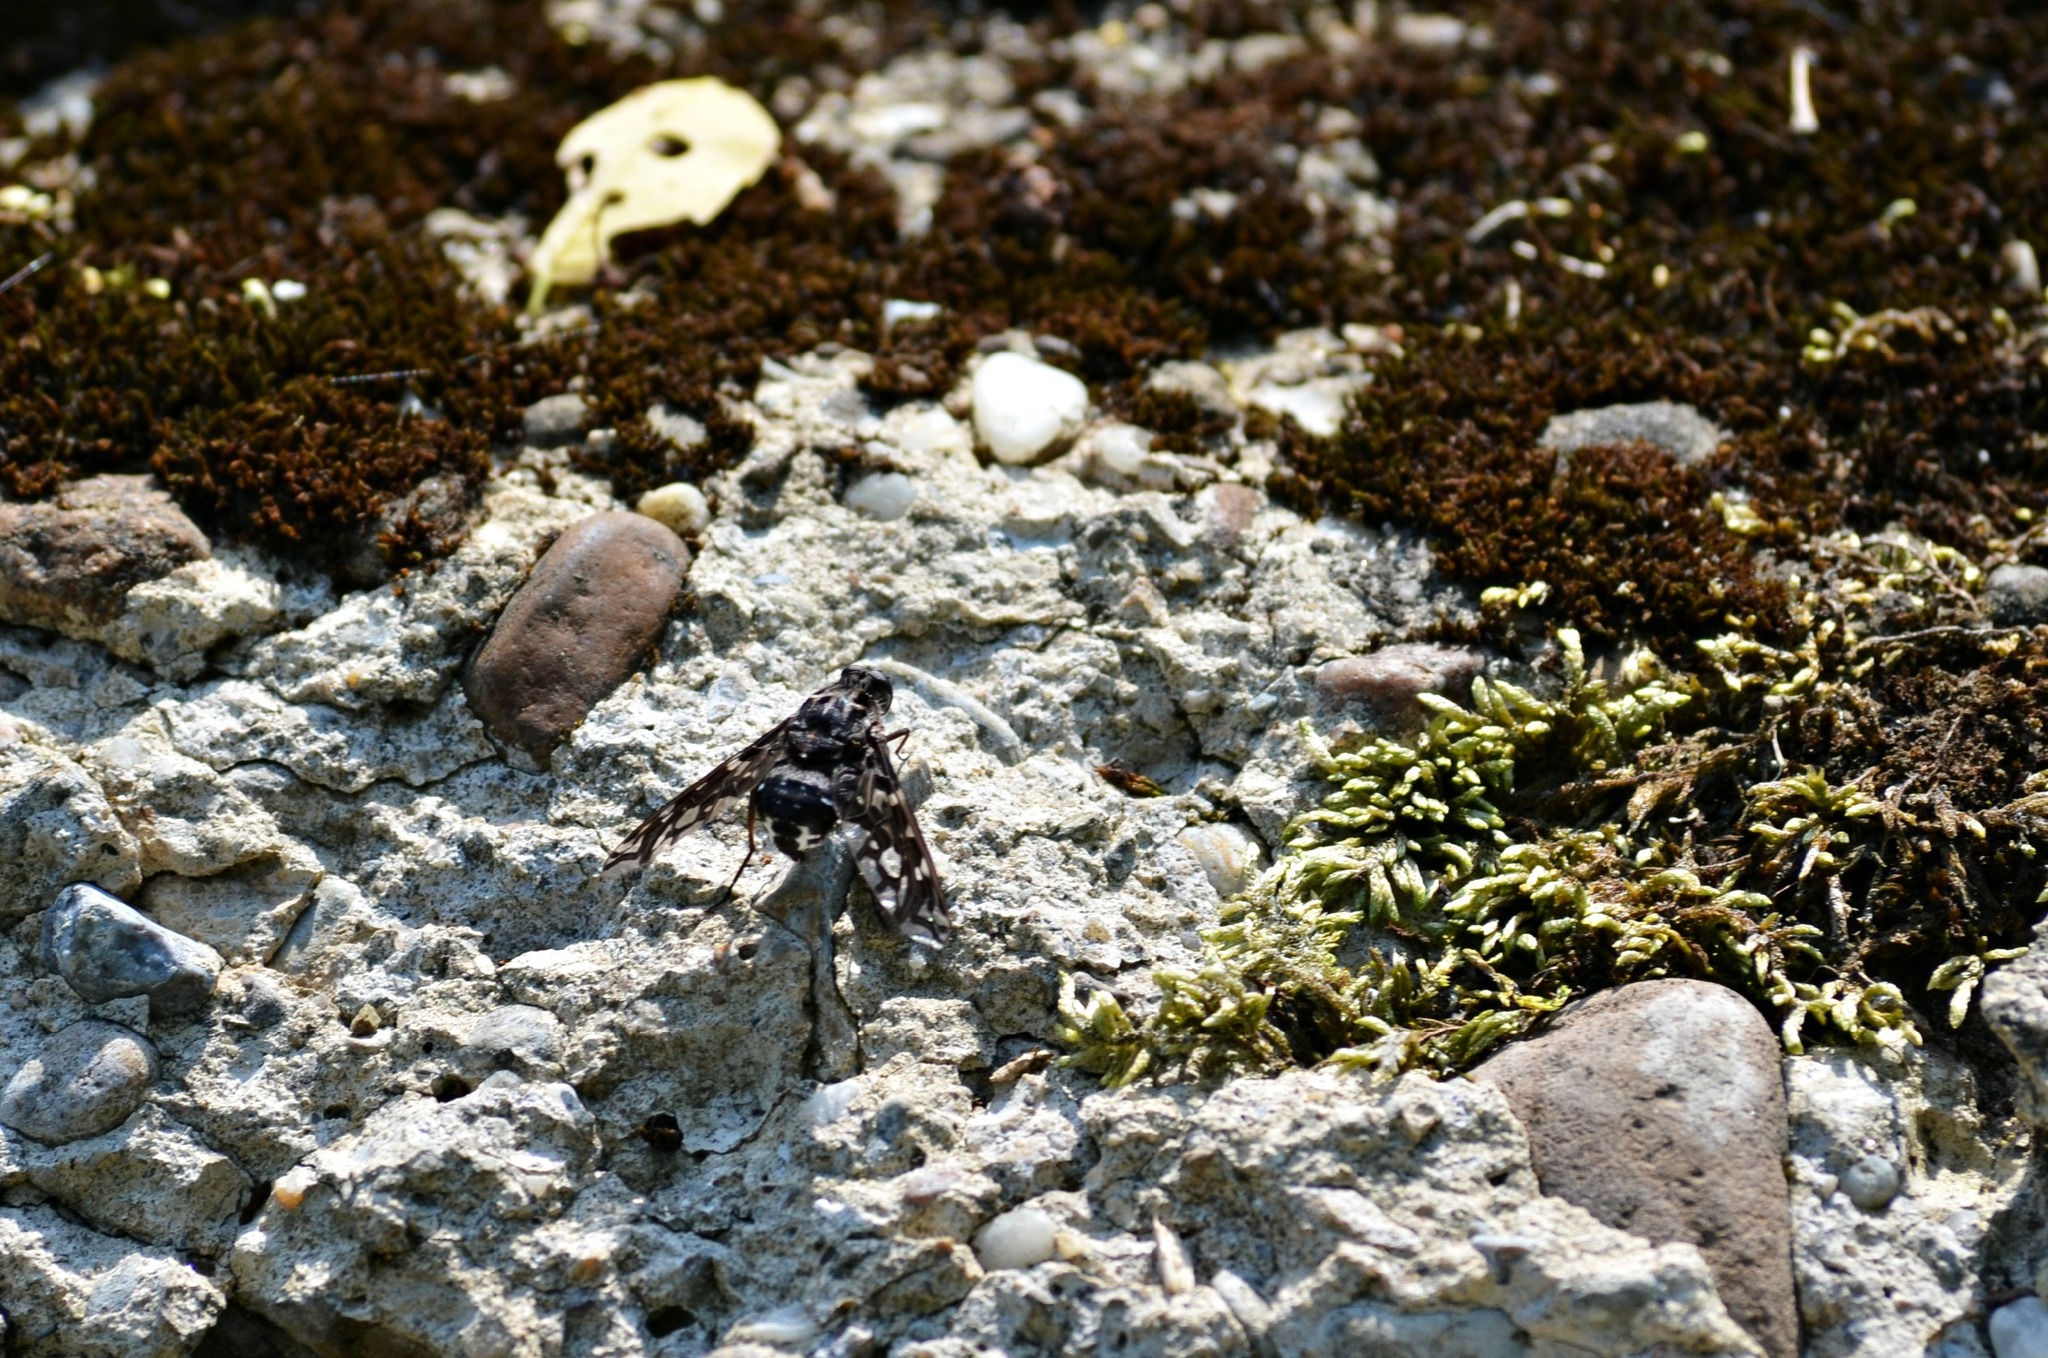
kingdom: Animalia
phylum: Arthropoda
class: Insecta
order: Diptera
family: Bombyliidae
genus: Xenox
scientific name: Xenox tigrinus
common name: Tiger bee fly
